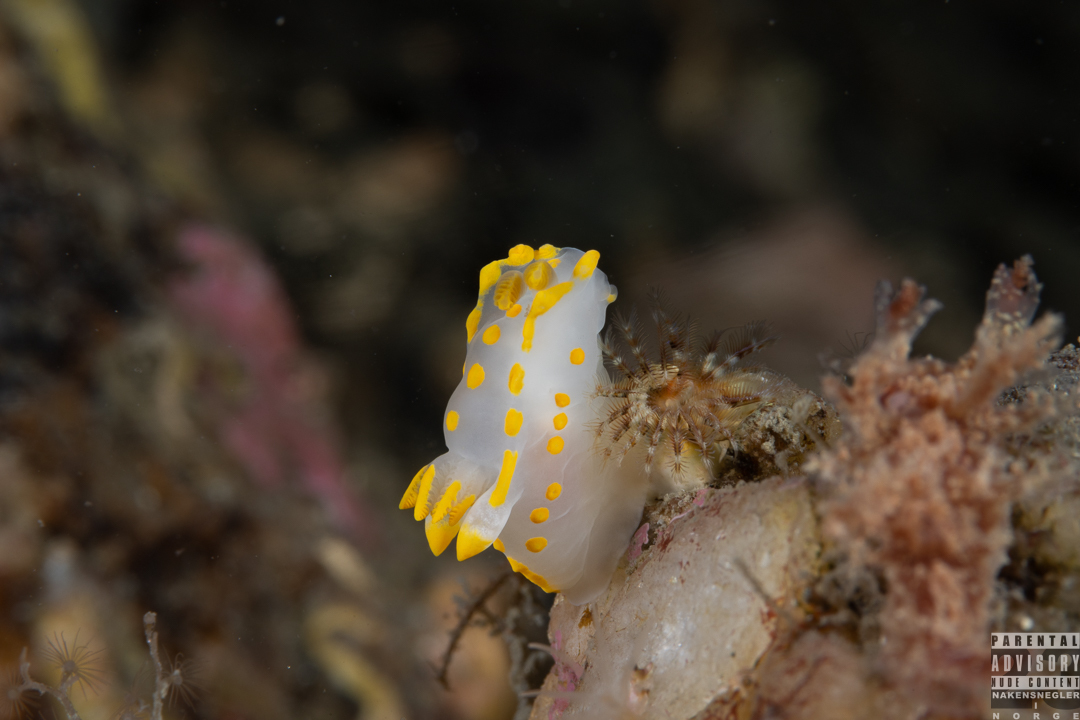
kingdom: Animalia
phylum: Mollusca
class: Gastropoda
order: Nudibranchia
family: Polyceridae
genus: Polycera
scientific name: Polycera quadrilineata
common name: Four-striped polycera
